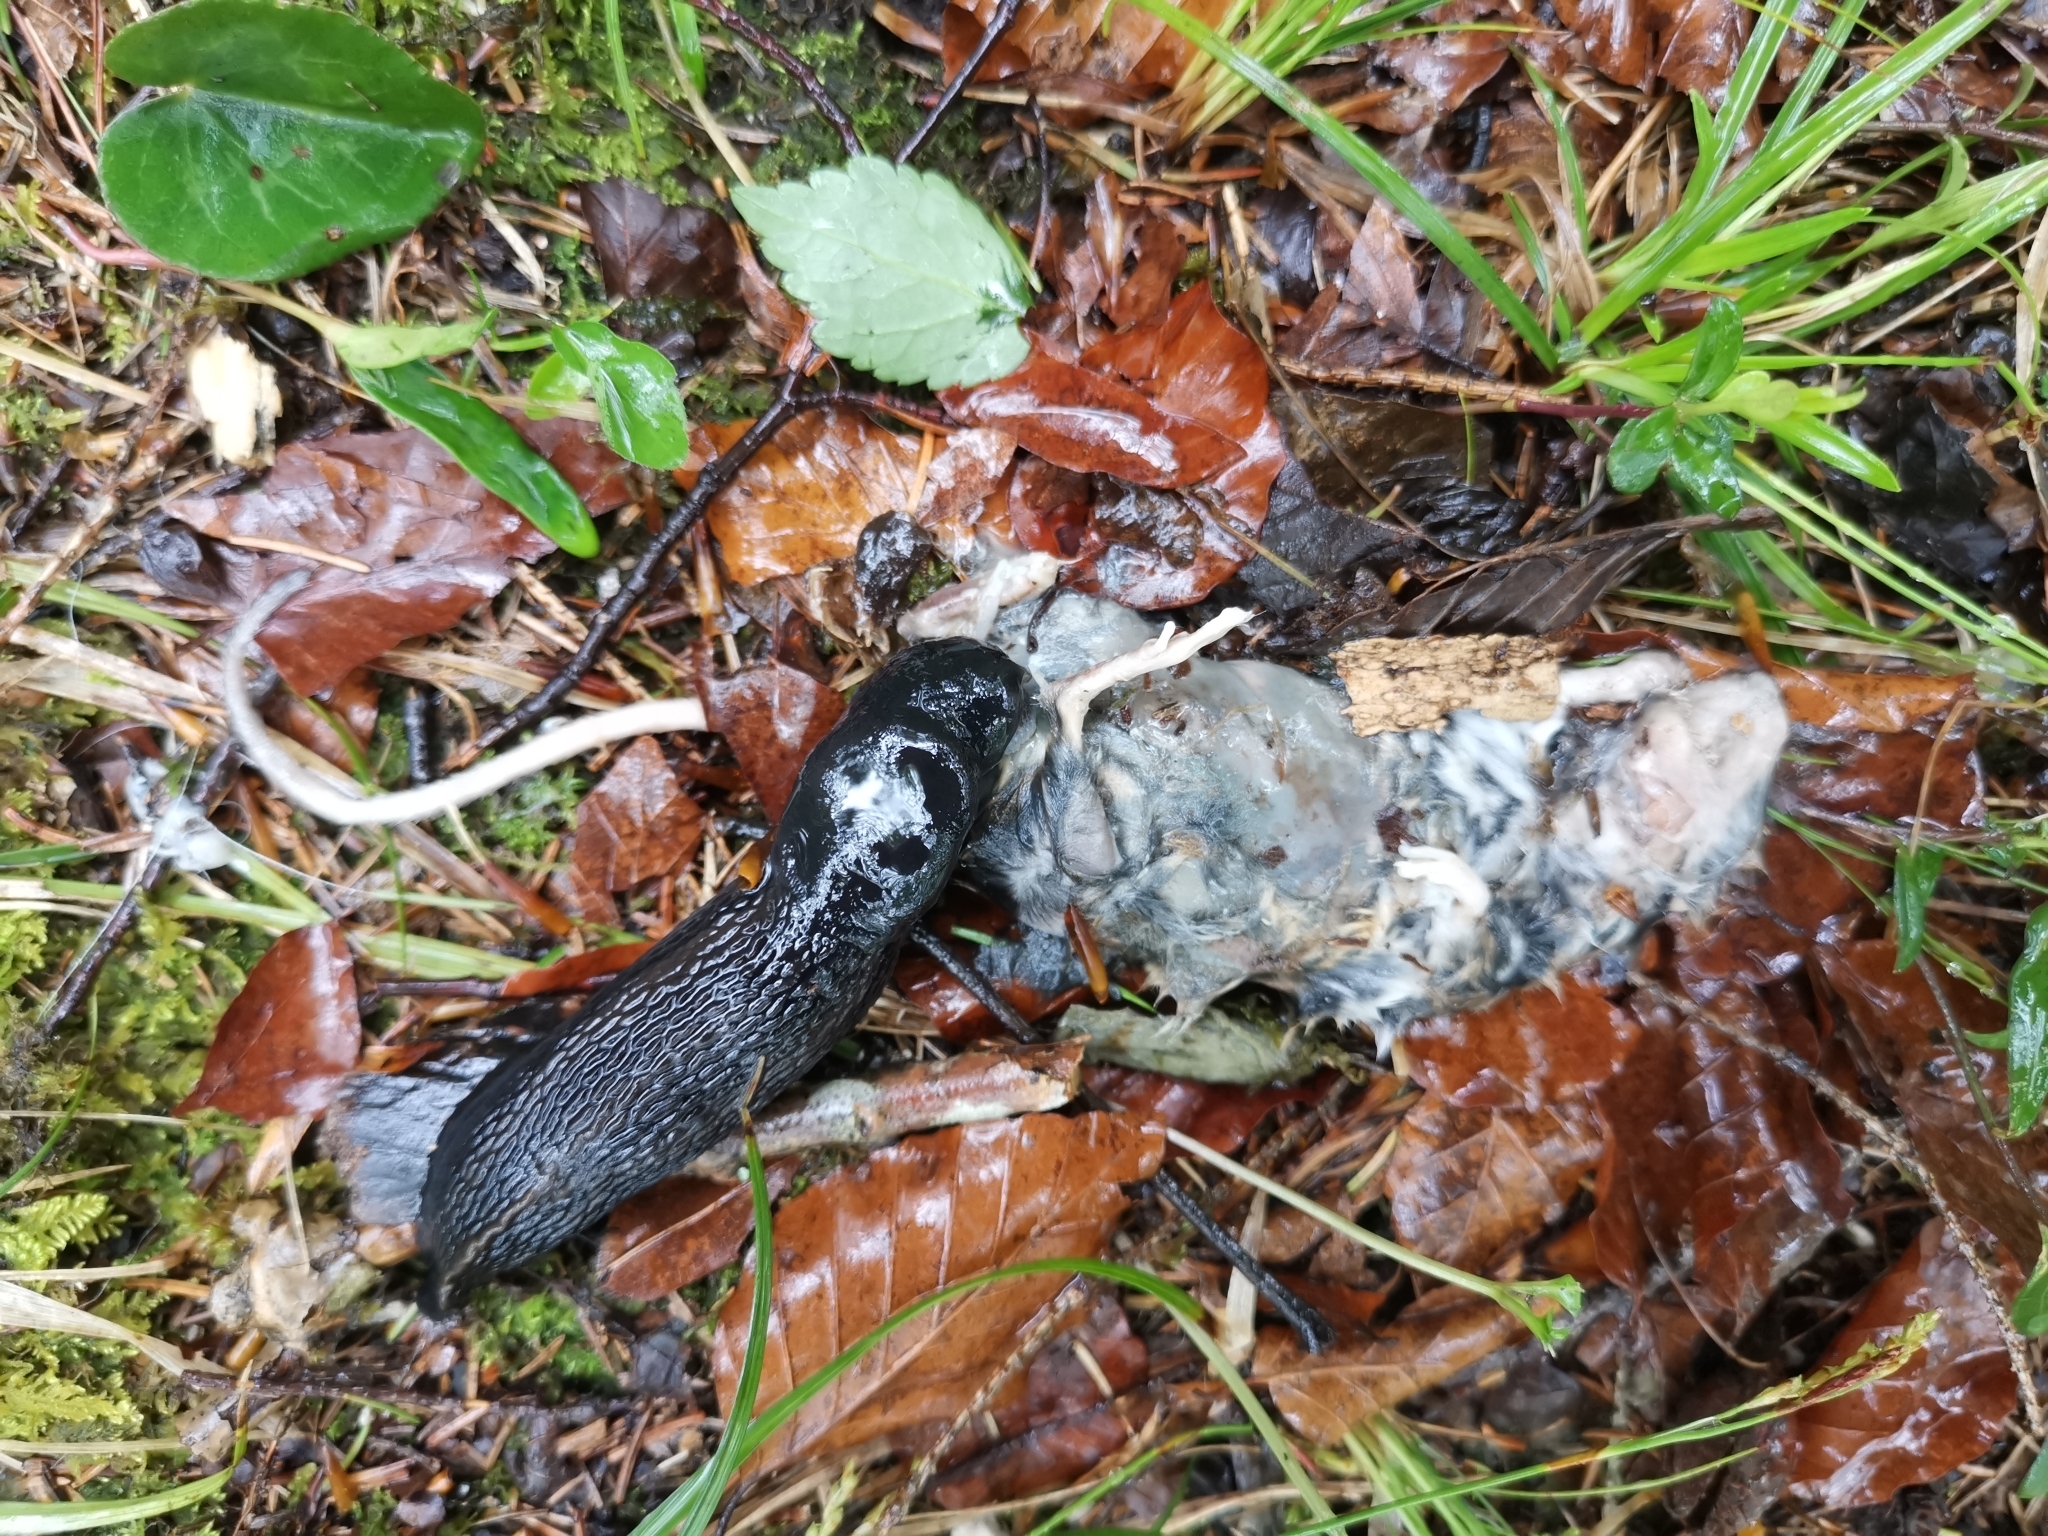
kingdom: Animalia
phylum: Mollusca
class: Gastropoda
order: Stylommatophora
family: Limacidae
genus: Limax
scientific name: Limax cinereoniger
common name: Ash-black slug
